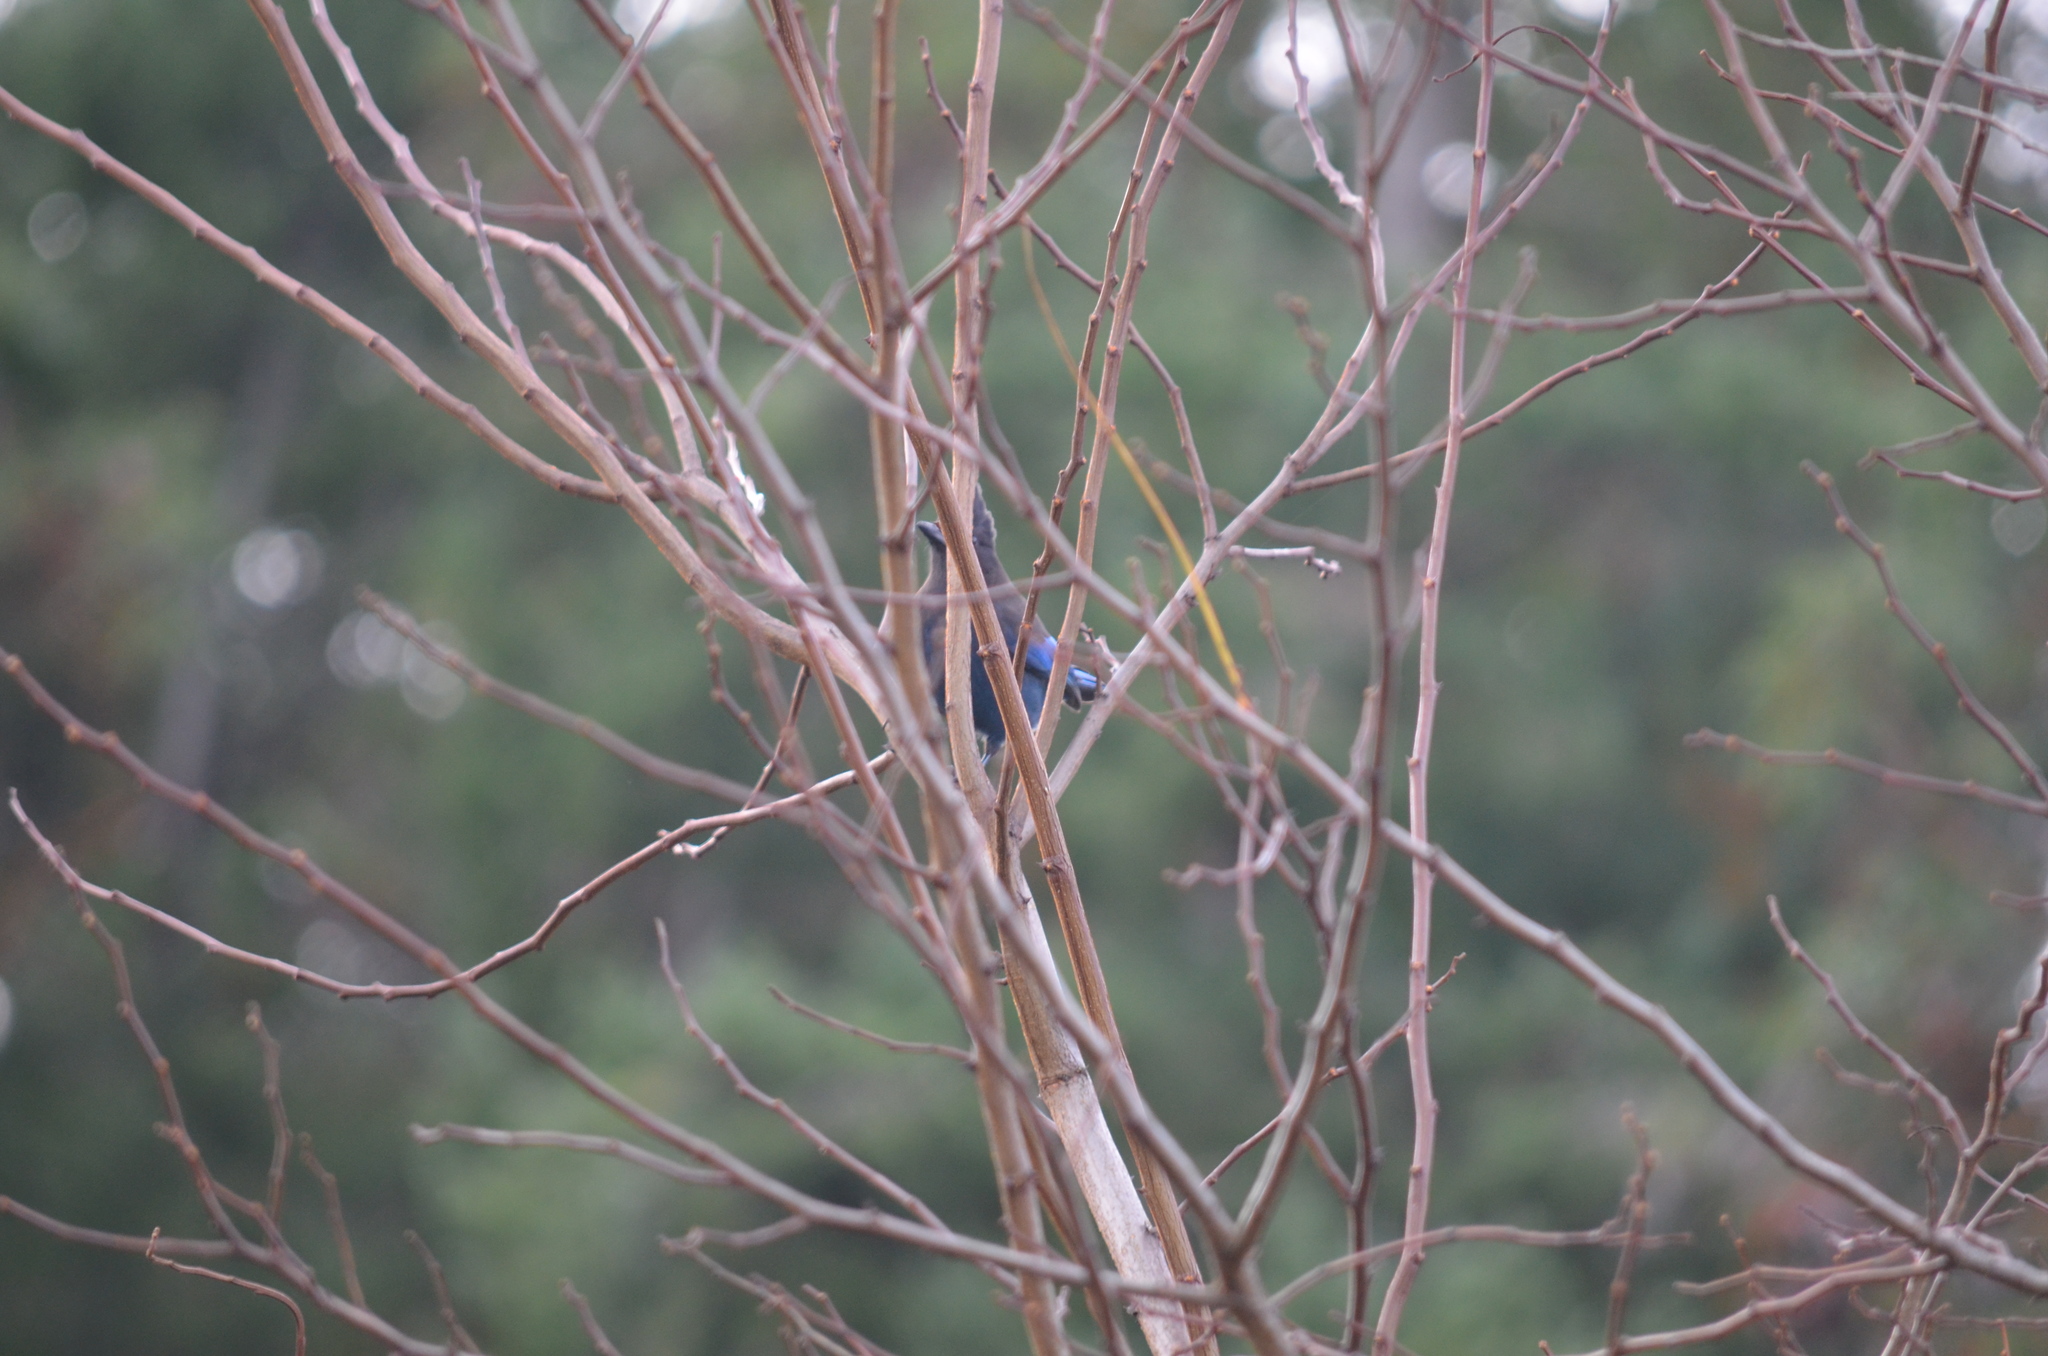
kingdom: Animalia
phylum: Chordata
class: Aves
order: Passeriformes
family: Corvidae
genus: Cyanocitta
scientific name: Cyanocitta stelleri
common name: Steller's jay
